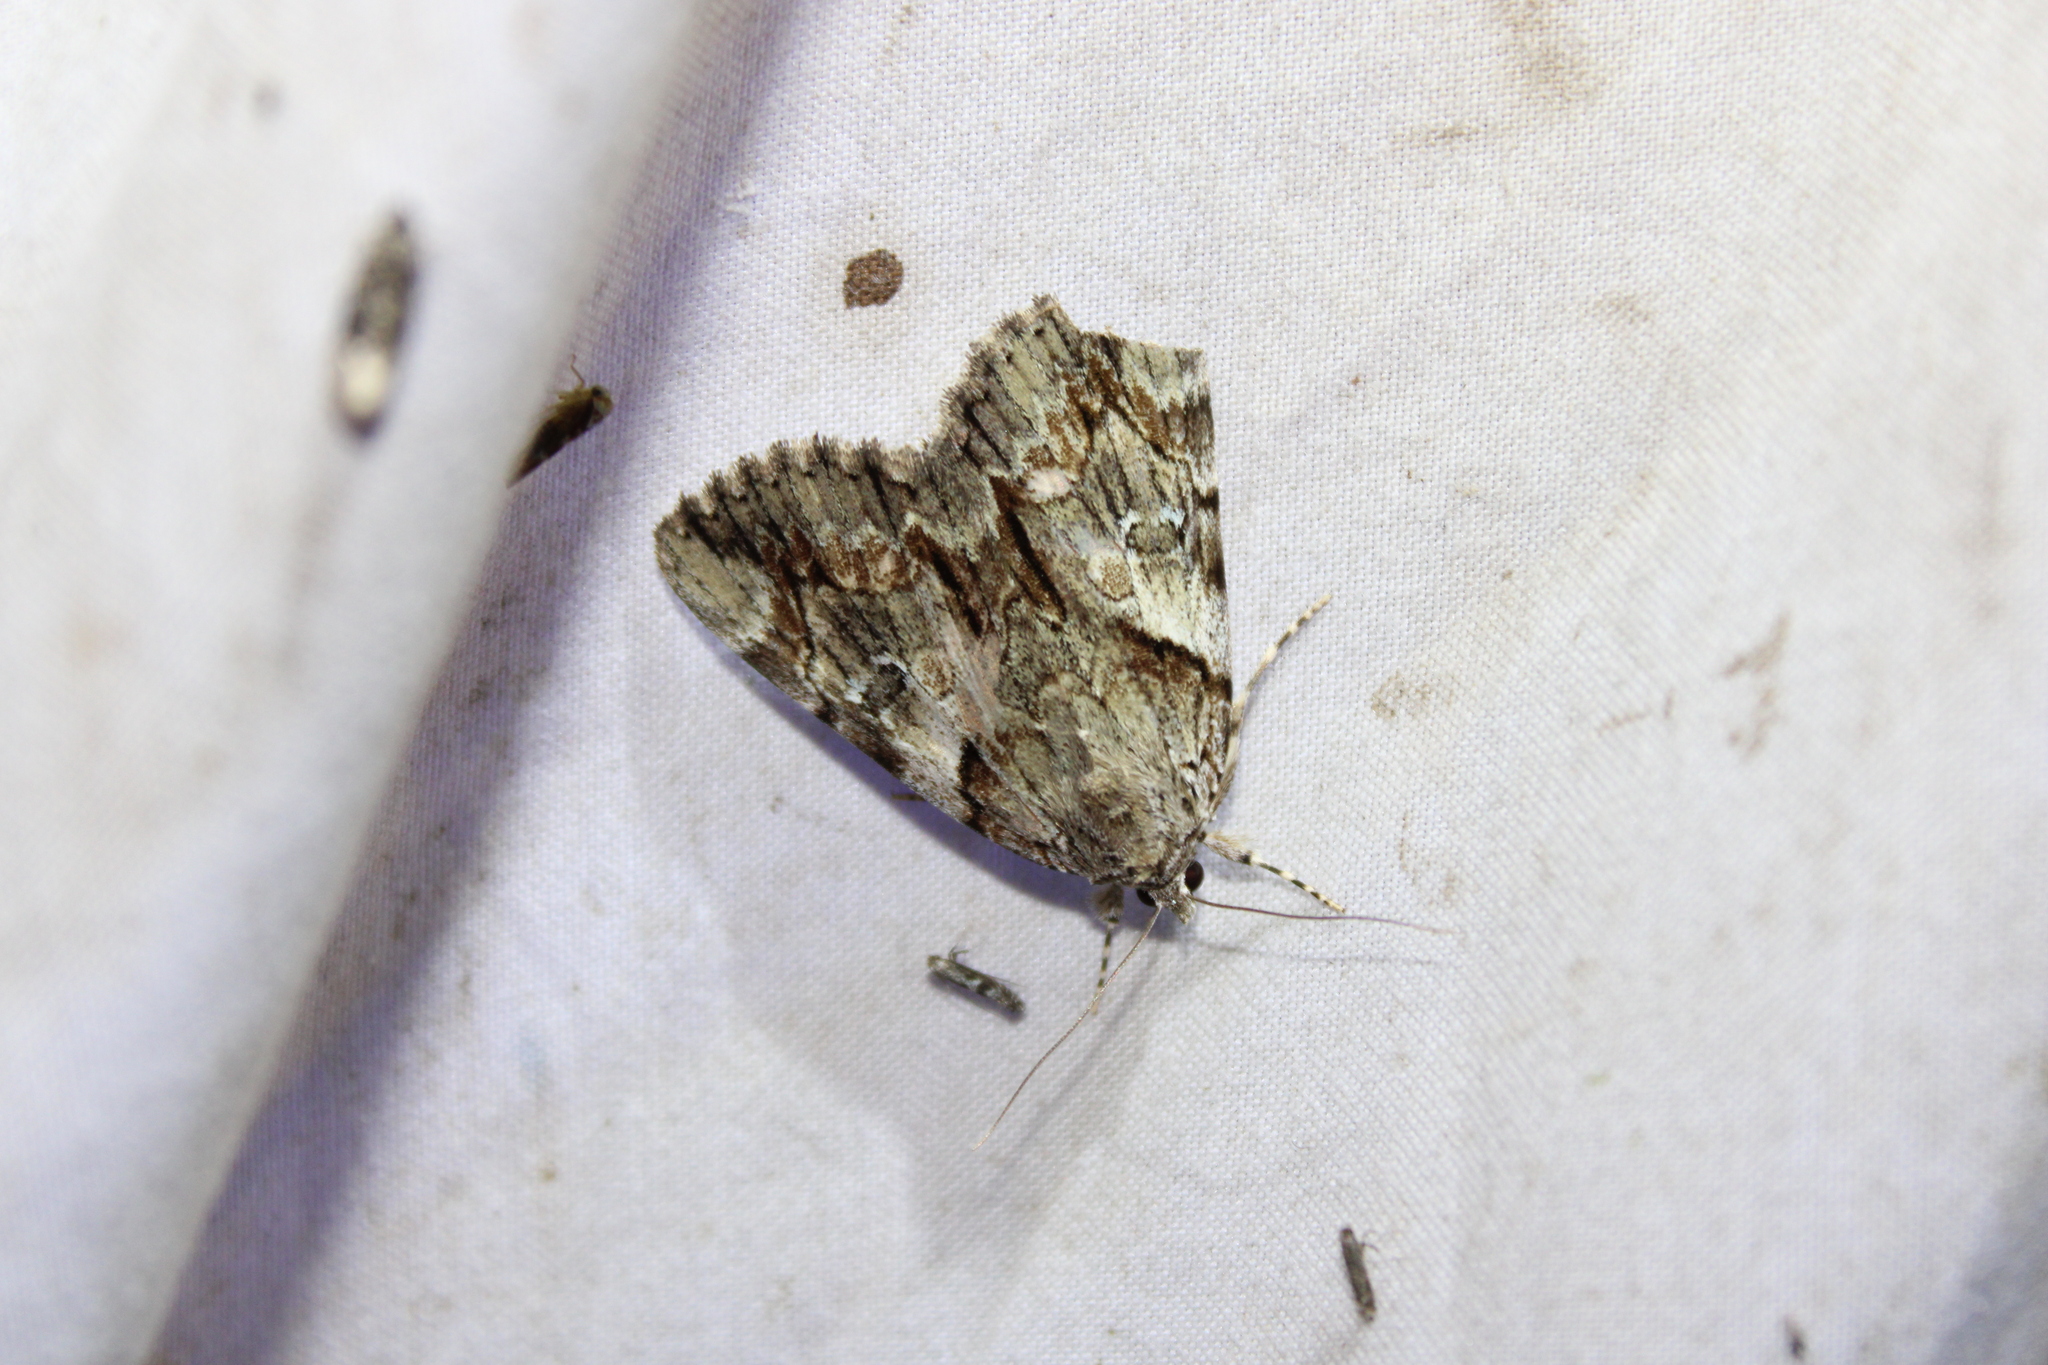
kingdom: Animalia
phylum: Arthropoda
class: Insecta
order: Lepidoptera
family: Erebidae
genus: Catocala
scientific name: Catocala blandula
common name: Charming underwing
